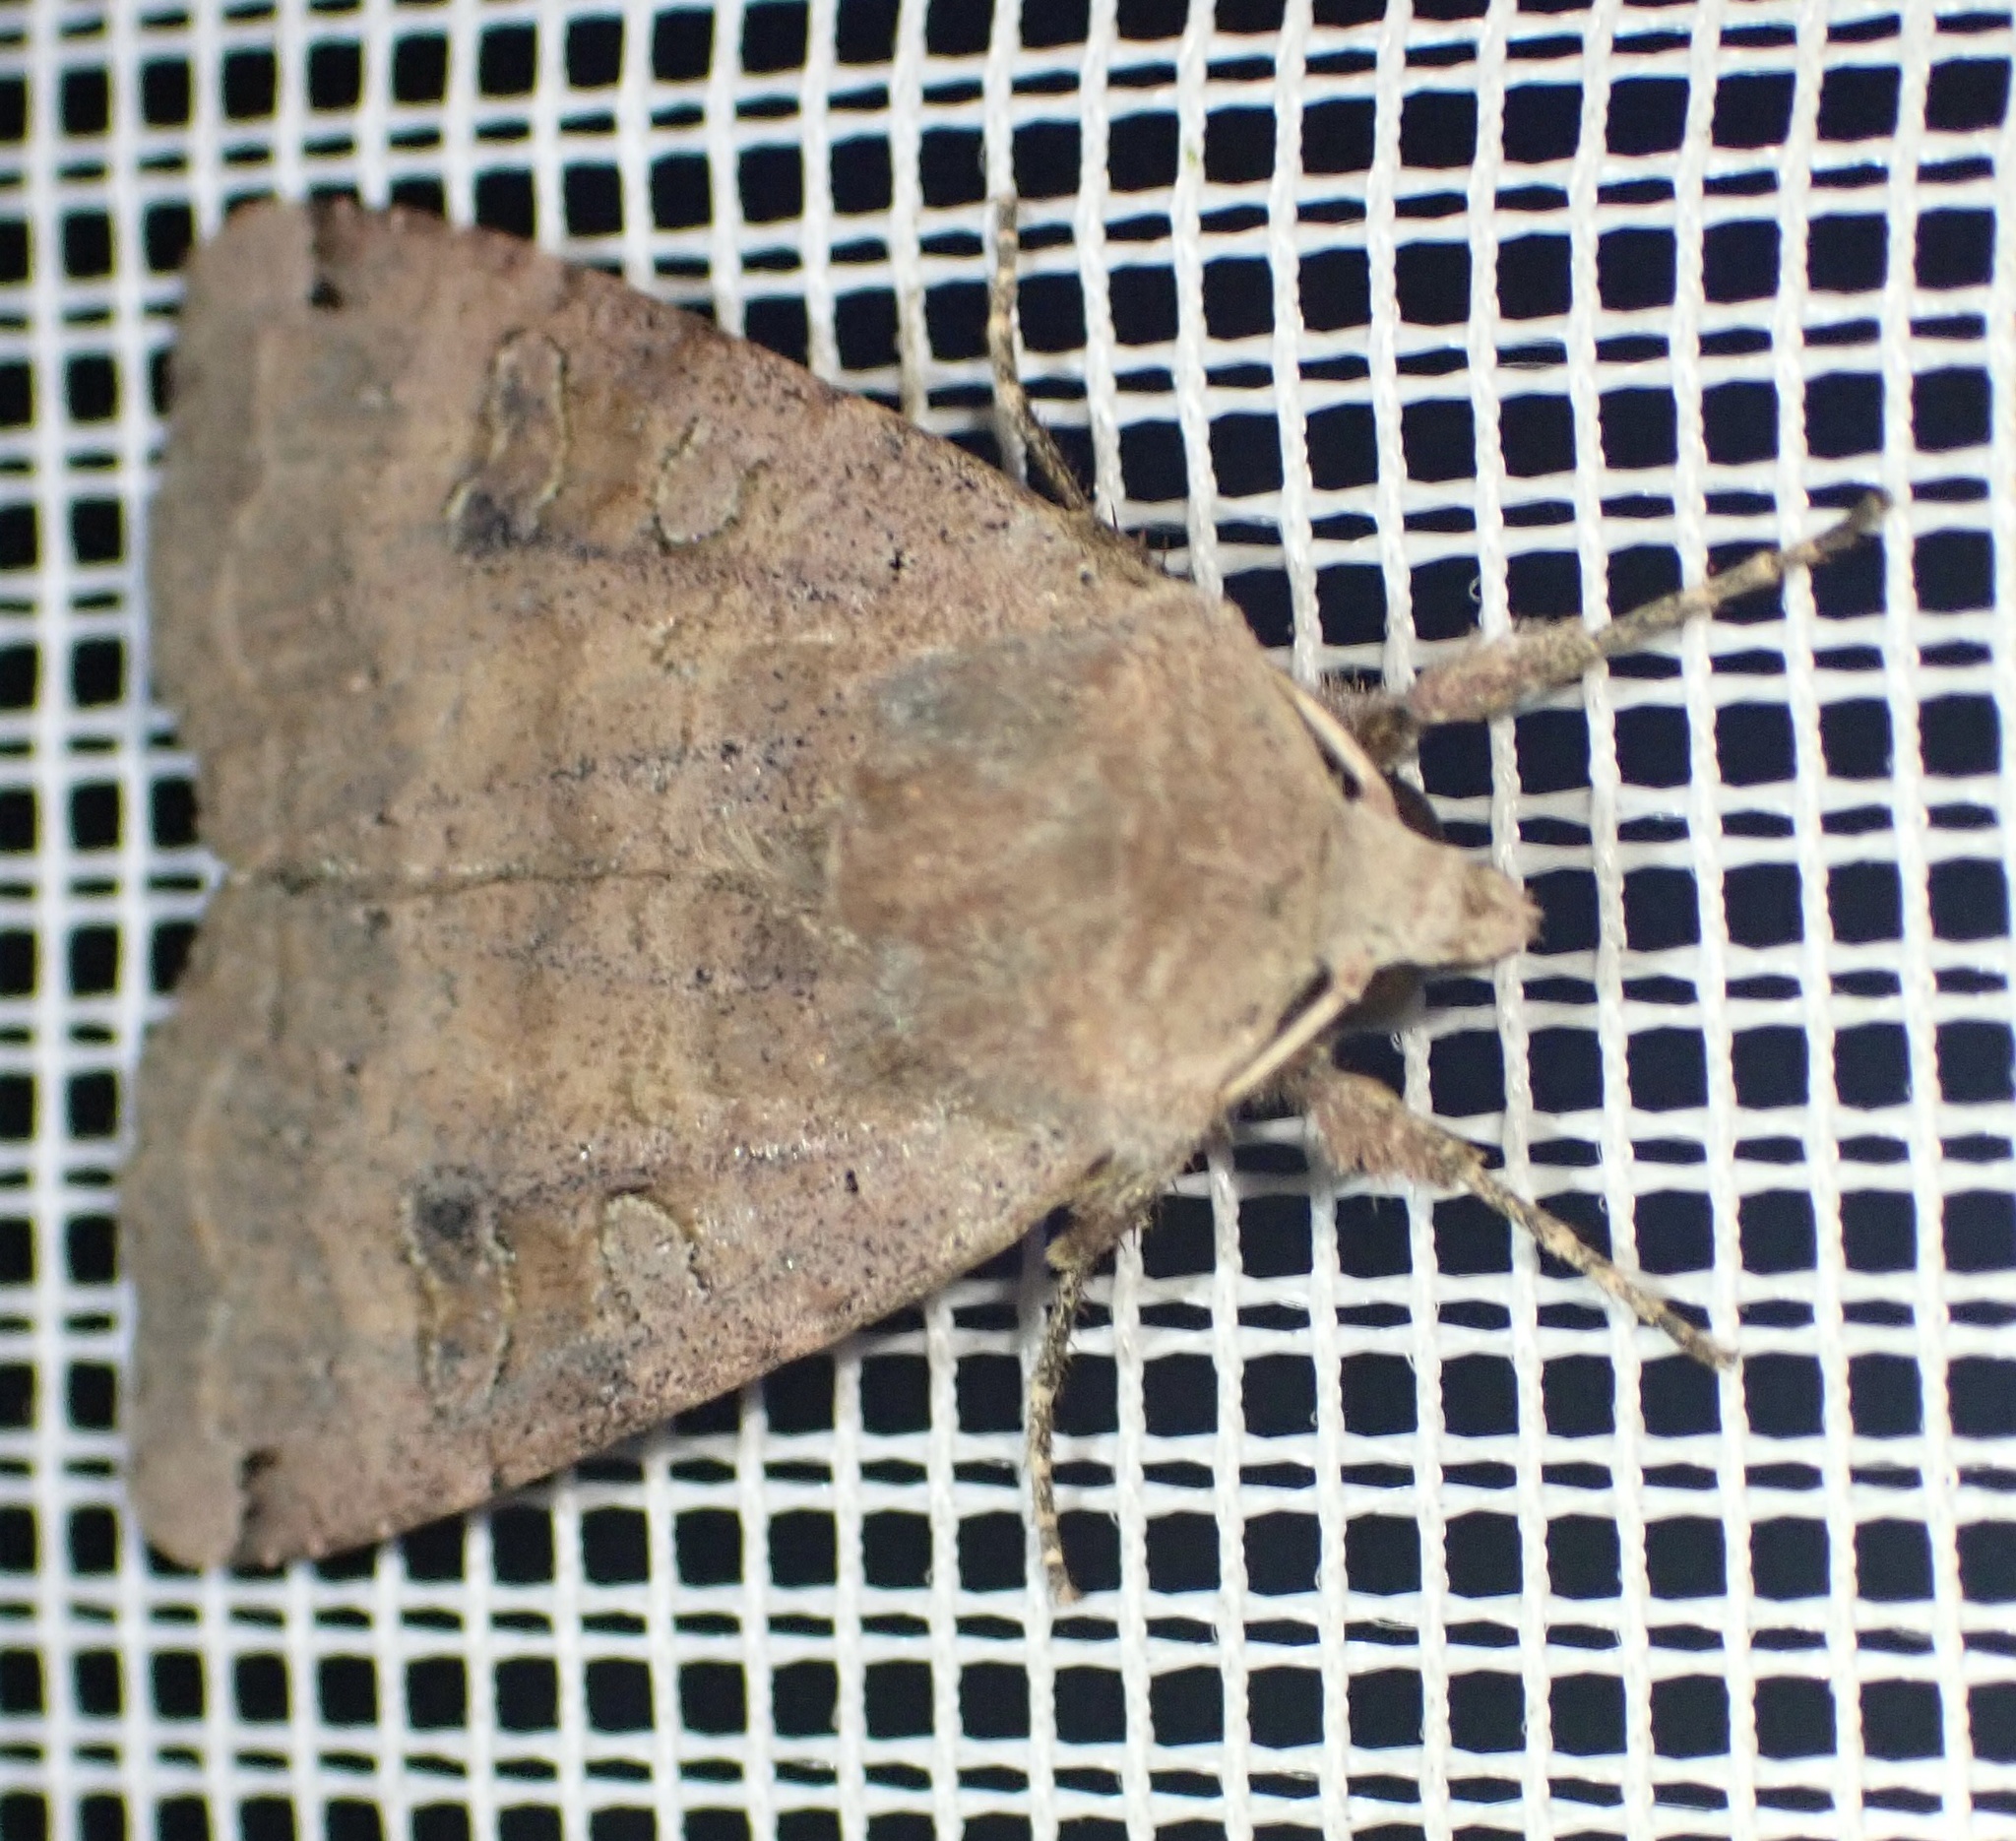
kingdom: Animalia
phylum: Arthropoda
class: Insecta
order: Lepidoptera
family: Noctuidae
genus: Xestia
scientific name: Xestia baja
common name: Dotted clay
